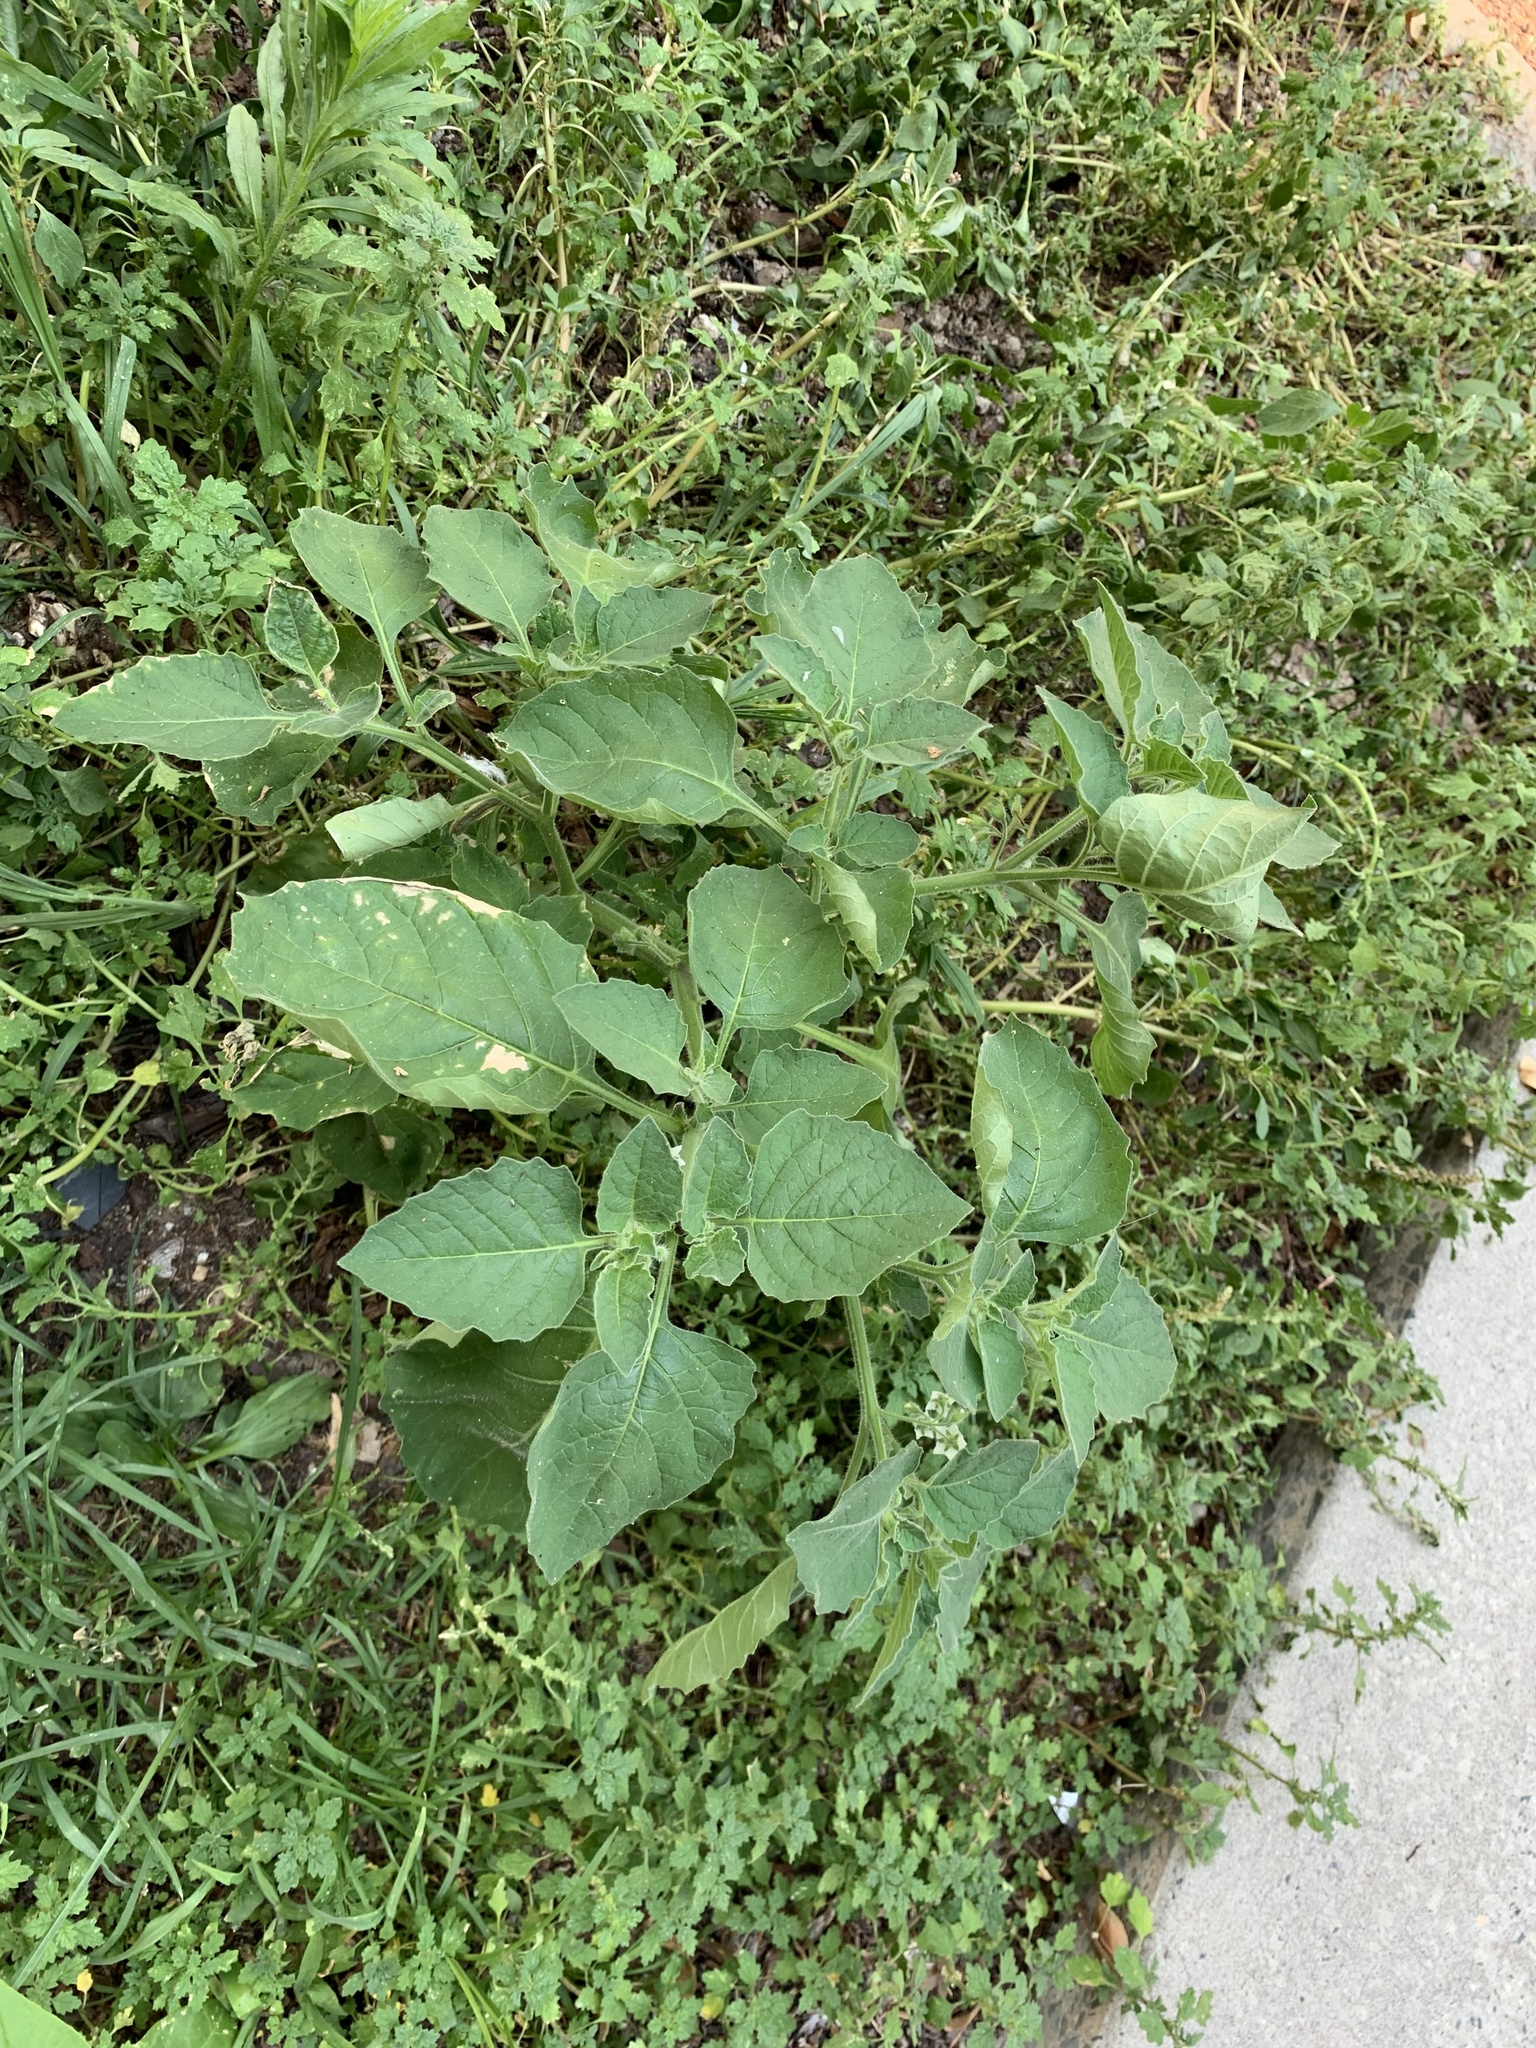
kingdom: Plantae
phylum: Tracheophyta
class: Magnoliopsida
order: Solanales
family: Solanaceae
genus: Solanum
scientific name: Solanum sarrachoides
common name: Leafy-fruited nightshade
